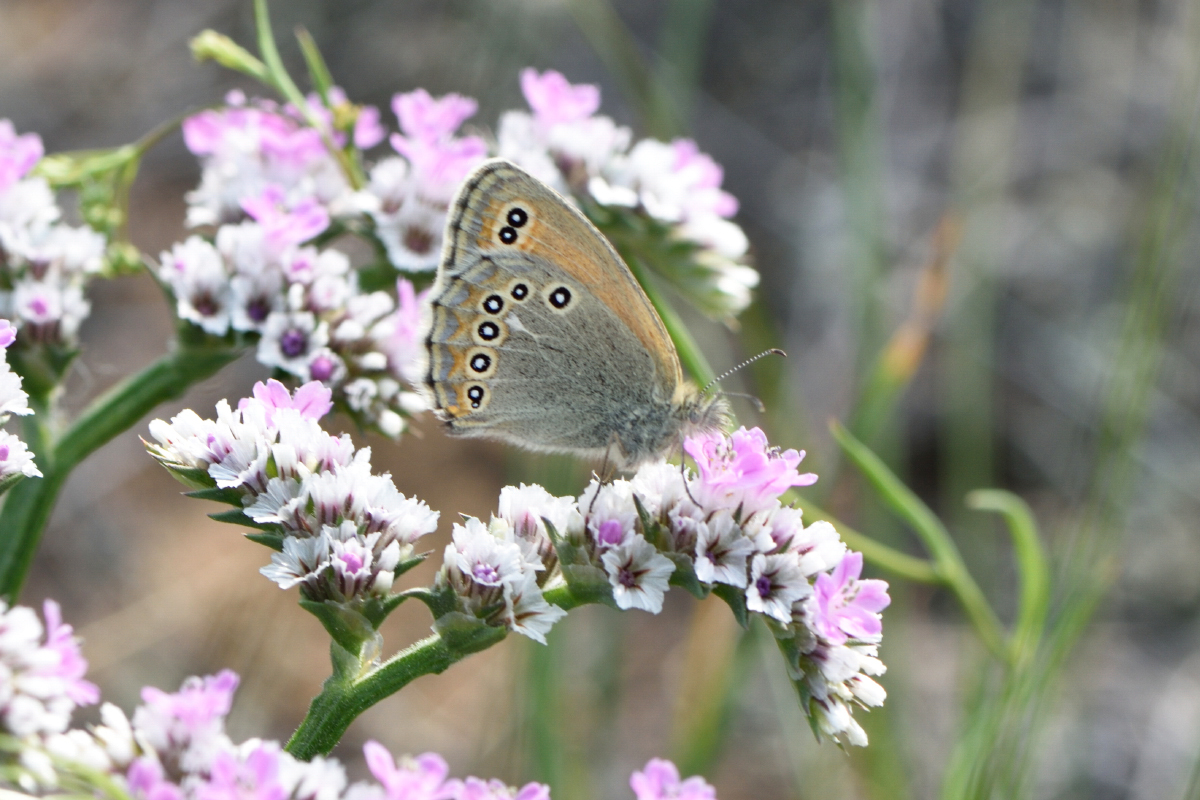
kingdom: Animalia
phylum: Arthropoda
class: Insecta
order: Lepidoptera
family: Nymphalidae
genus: Coenonympha
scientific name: Coenonympha amaryllis
